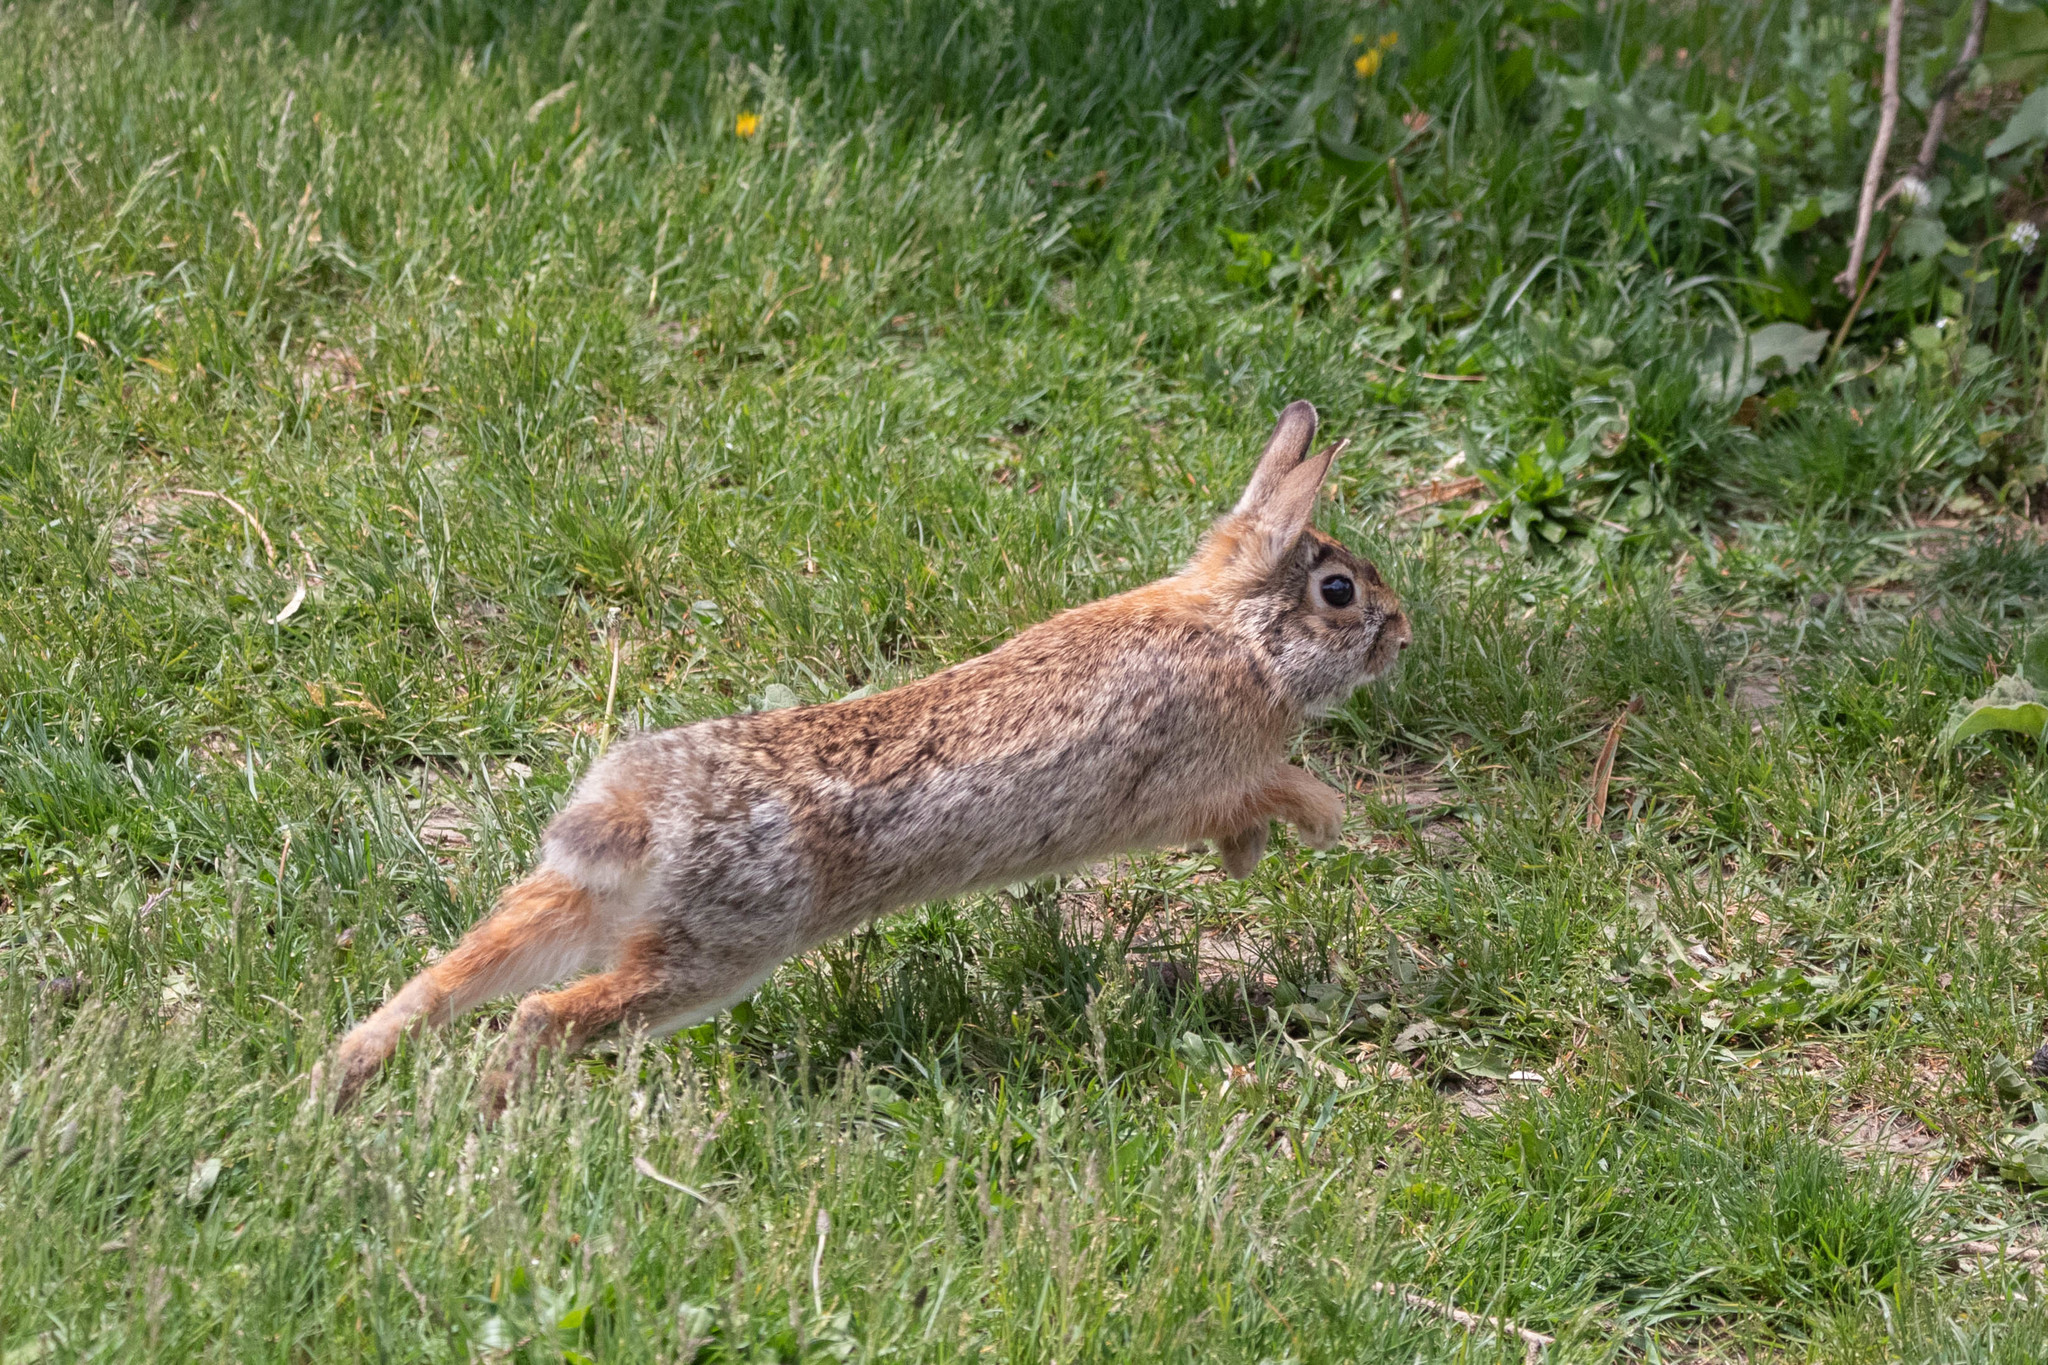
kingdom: Animalia
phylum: Chordata
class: Mammalia
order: Lagomorpha
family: Leporidae
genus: Sylvilagus
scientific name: Sylvilagus floridanus
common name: Eastern cottontail
